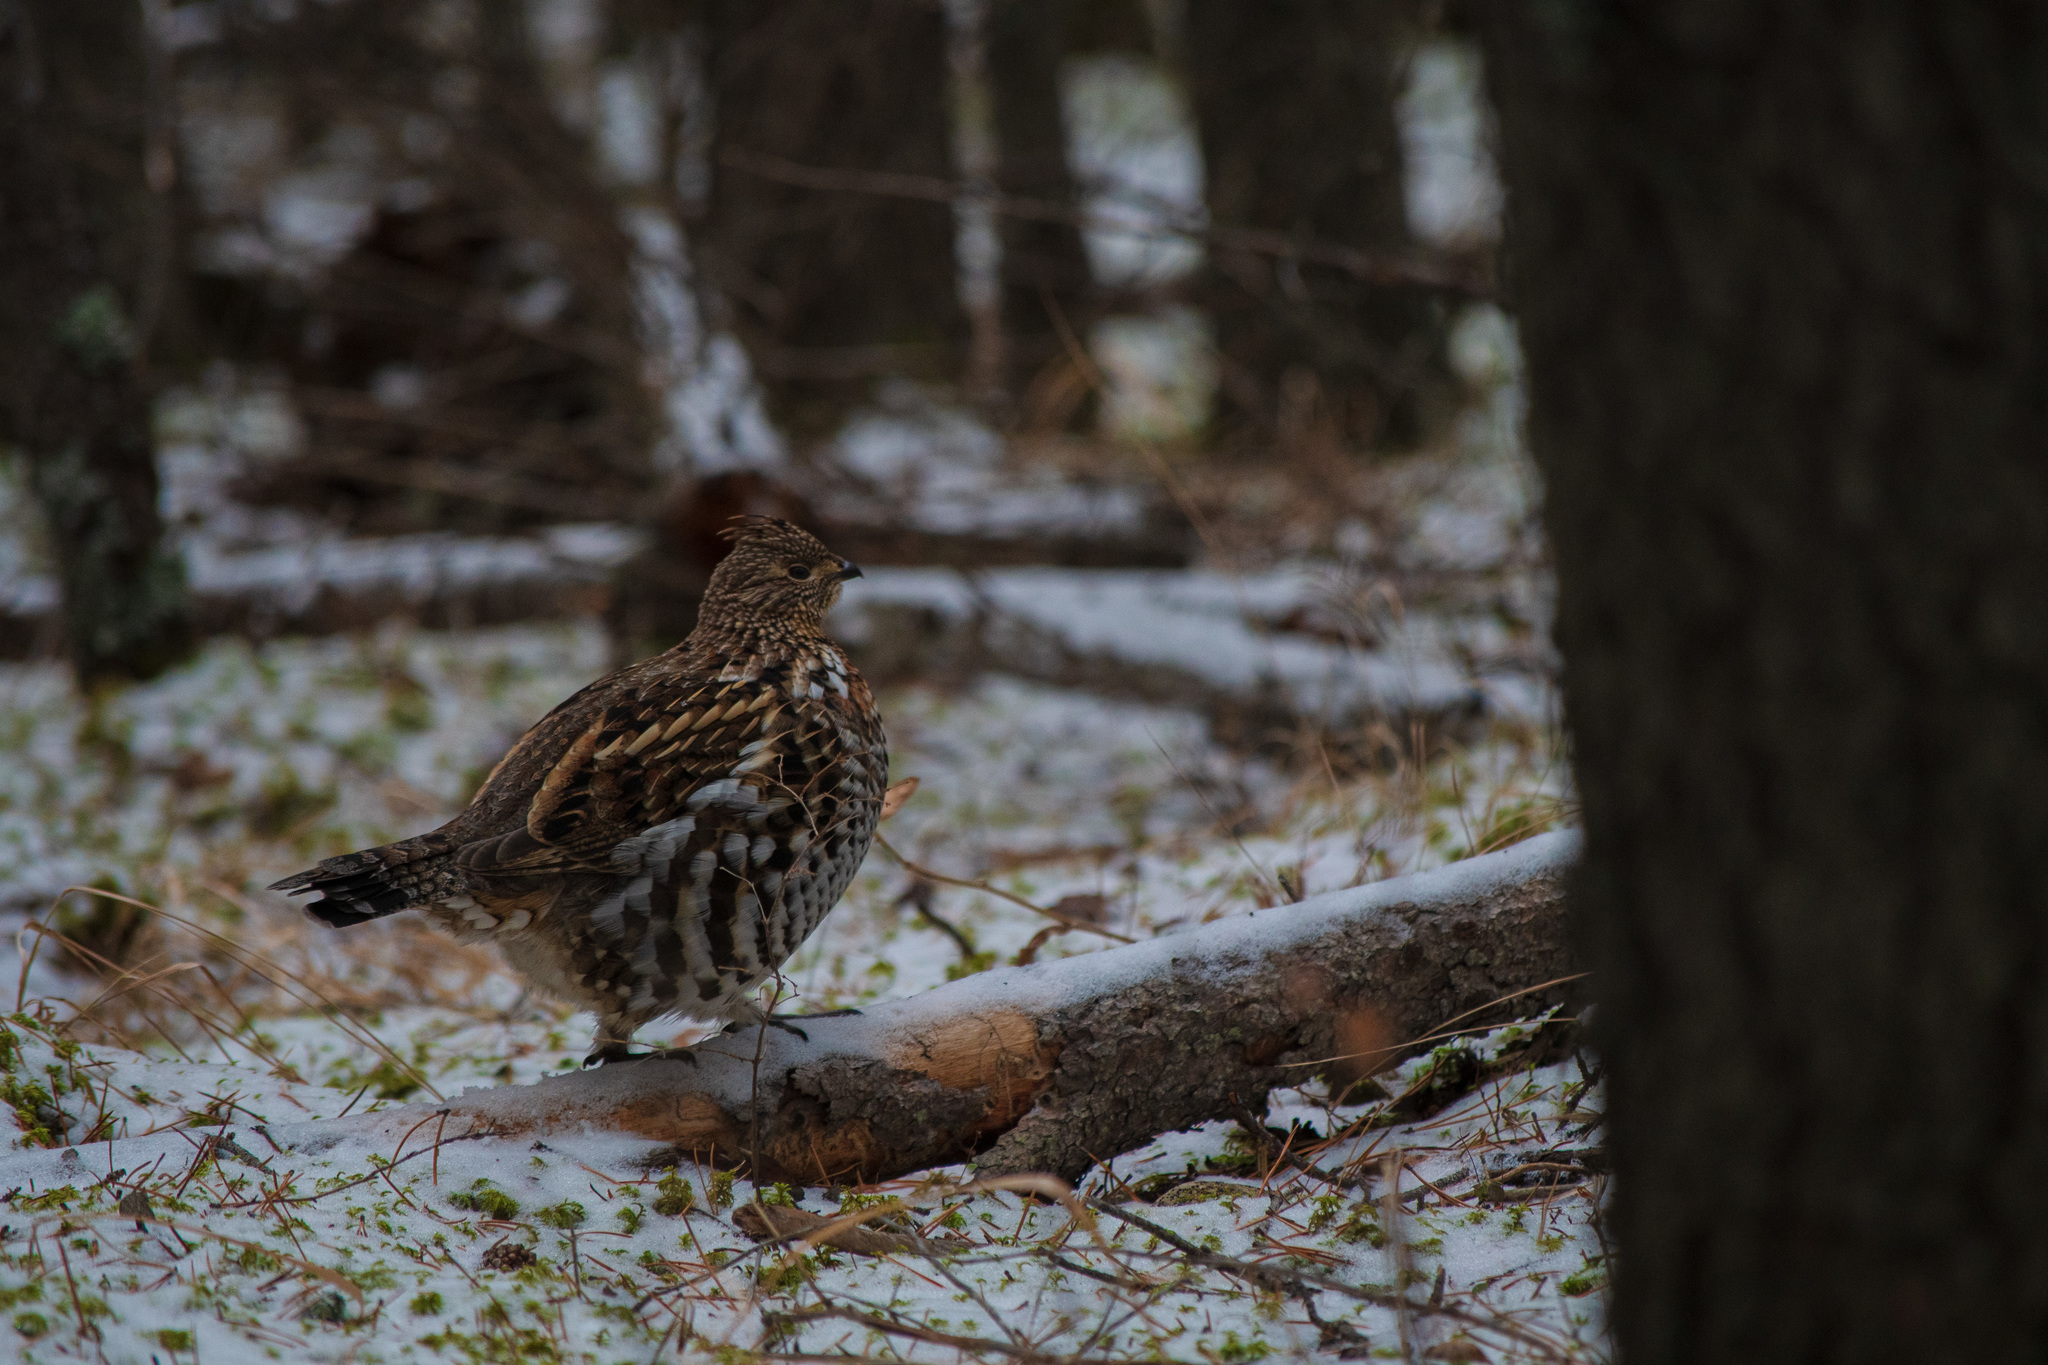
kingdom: Animalia
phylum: Chordata
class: Aves
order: Galliformes
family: Phasianidae
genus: Bonasa
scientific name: Bonasa umbellus
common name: Ruffed grouse
